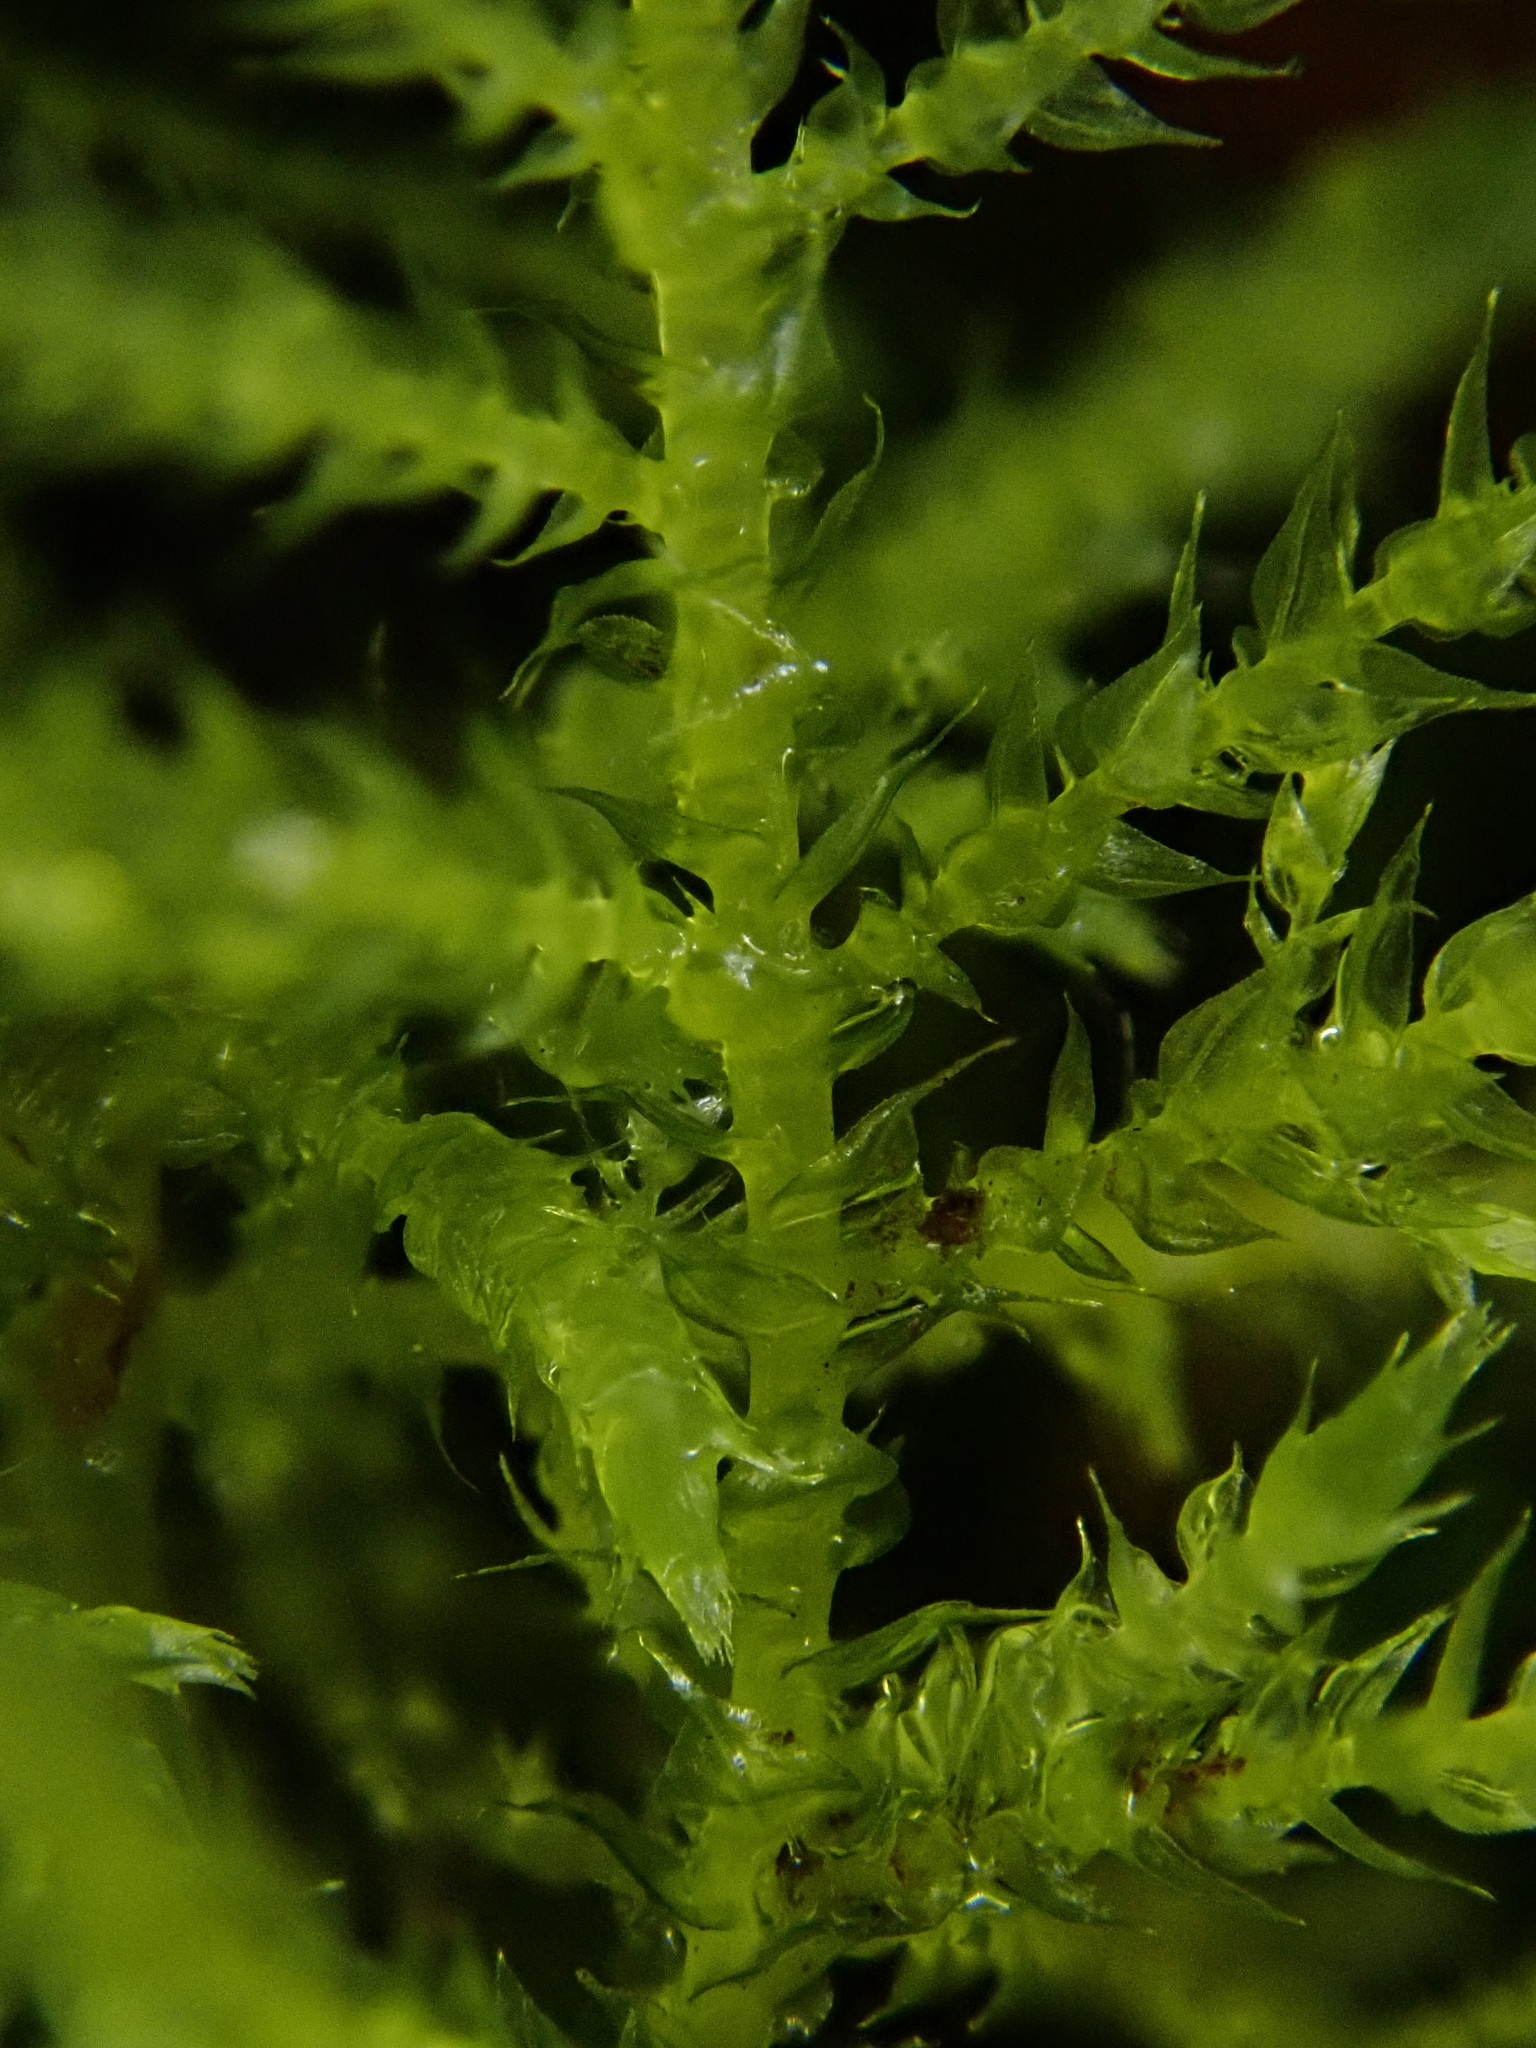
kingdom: Plantae
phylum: Bryophyta
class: Bryopsida
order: Hypnales
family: Brachytheciaceae
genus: Kindbergia
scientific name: Kindbergia praelonga
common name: Slender beaked moss
